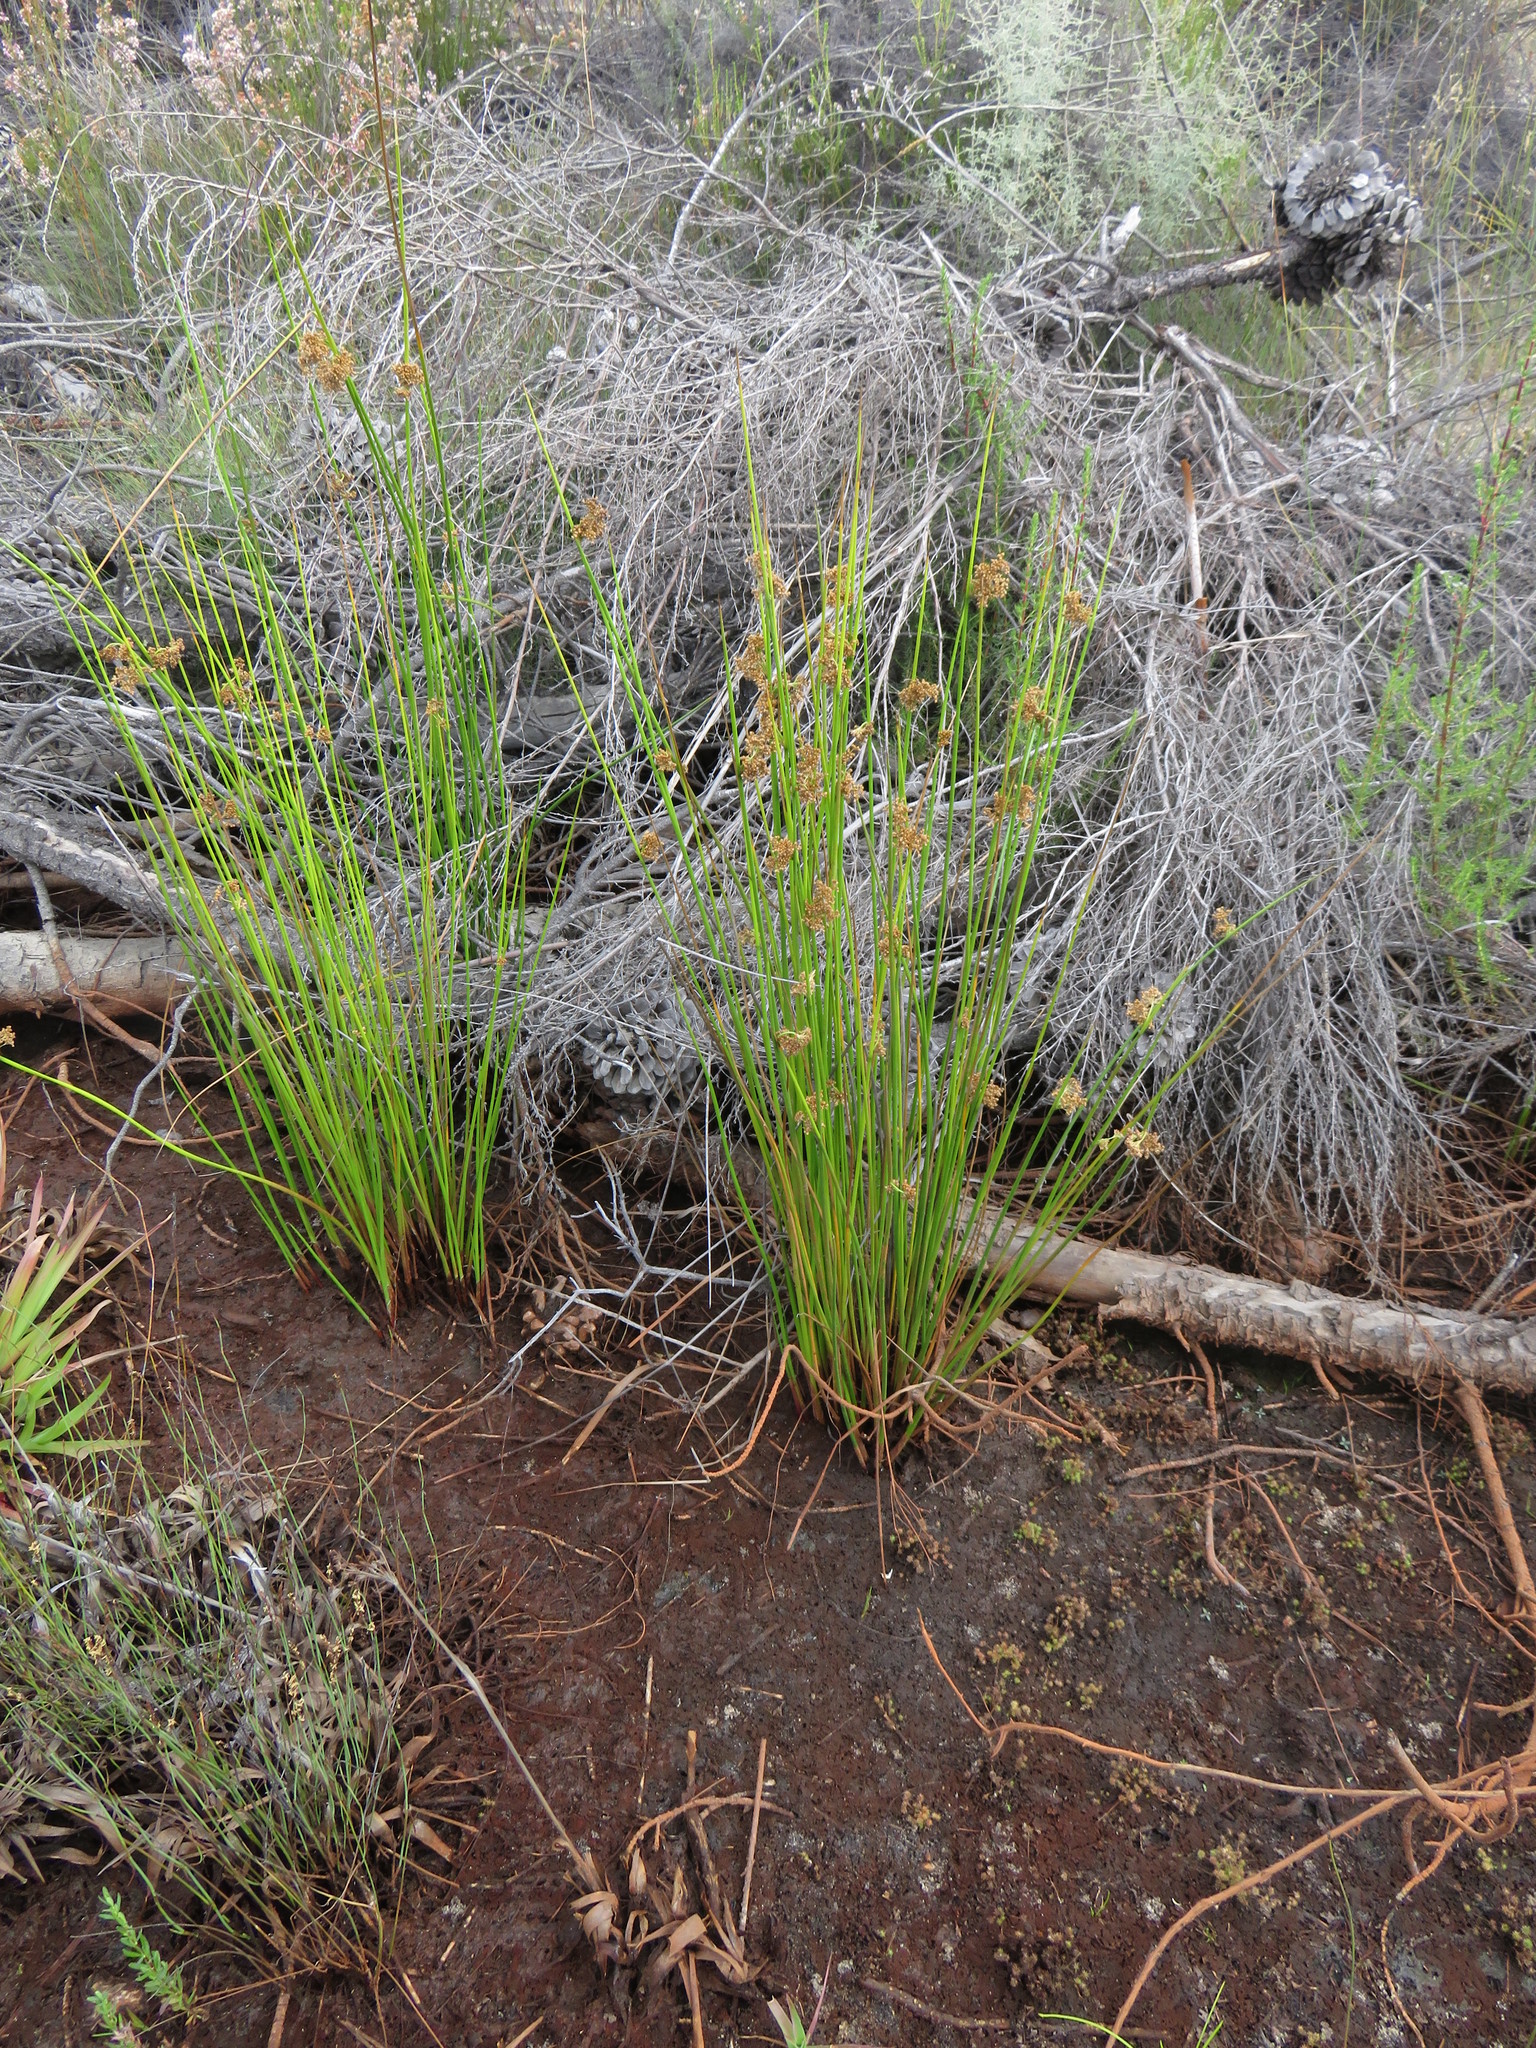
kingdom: Plantae
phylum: Tracheophyta
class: Liliopsida
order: Poales
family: Juncaceae
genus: Juncus
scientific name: Juncus effusus
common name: Soft rush
